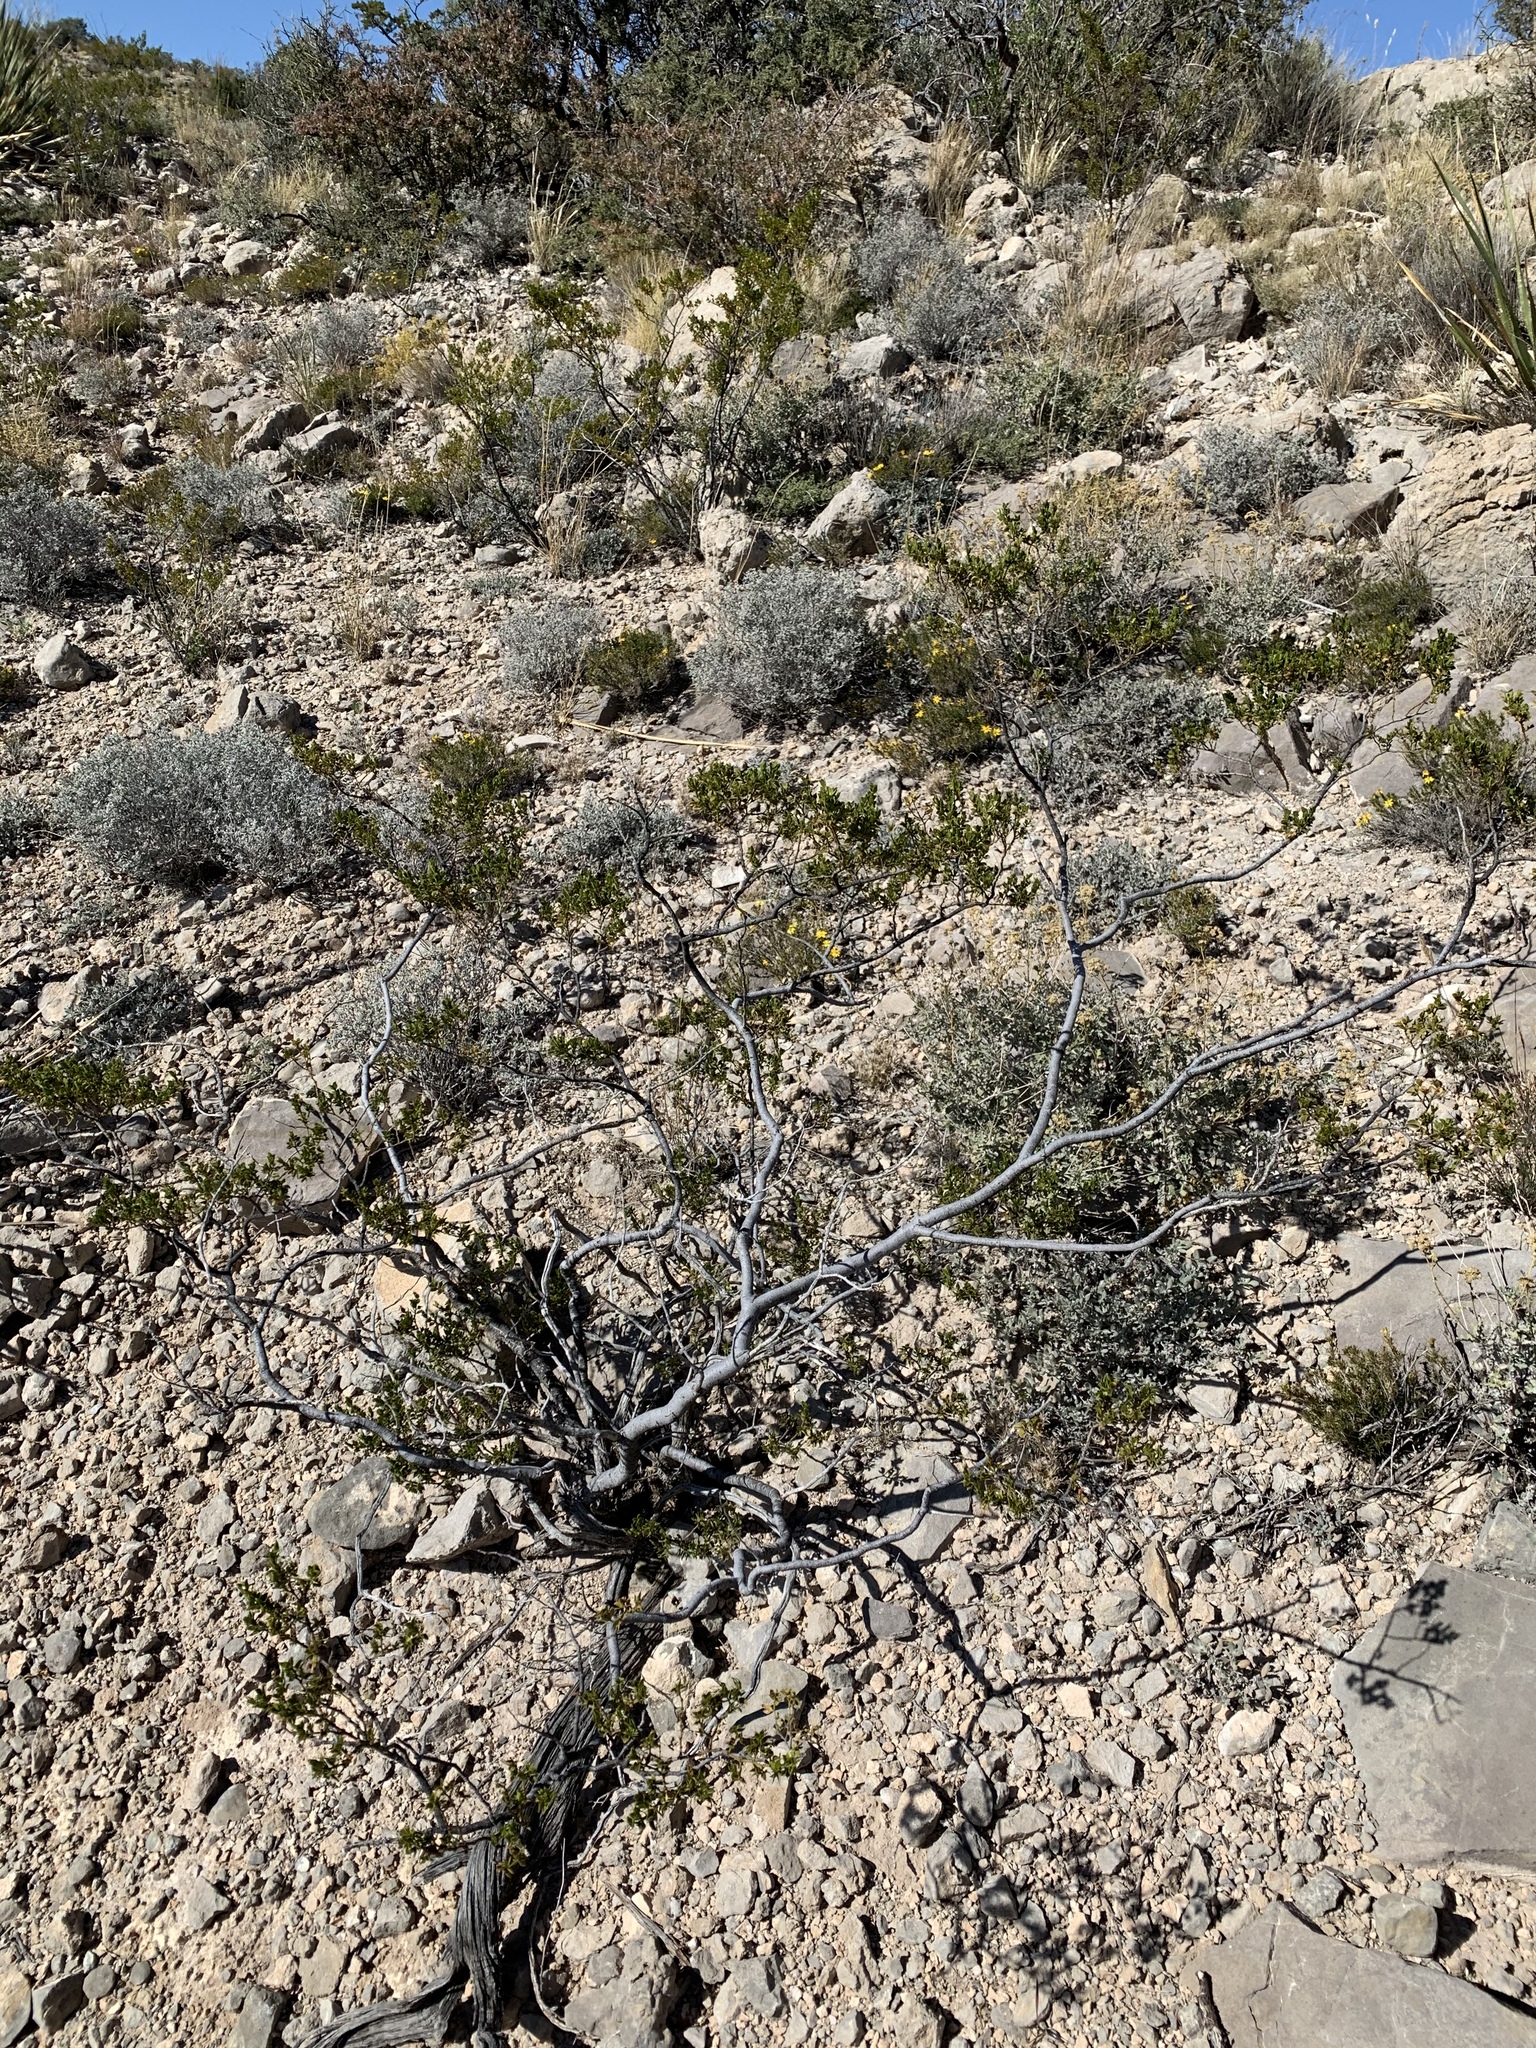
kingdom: Plantae
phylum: Tracheophyta
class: Magnoliopsida
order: Zygophyllales
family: Zygophyllaceae
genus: Larrea
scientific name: Larrea tridentata
